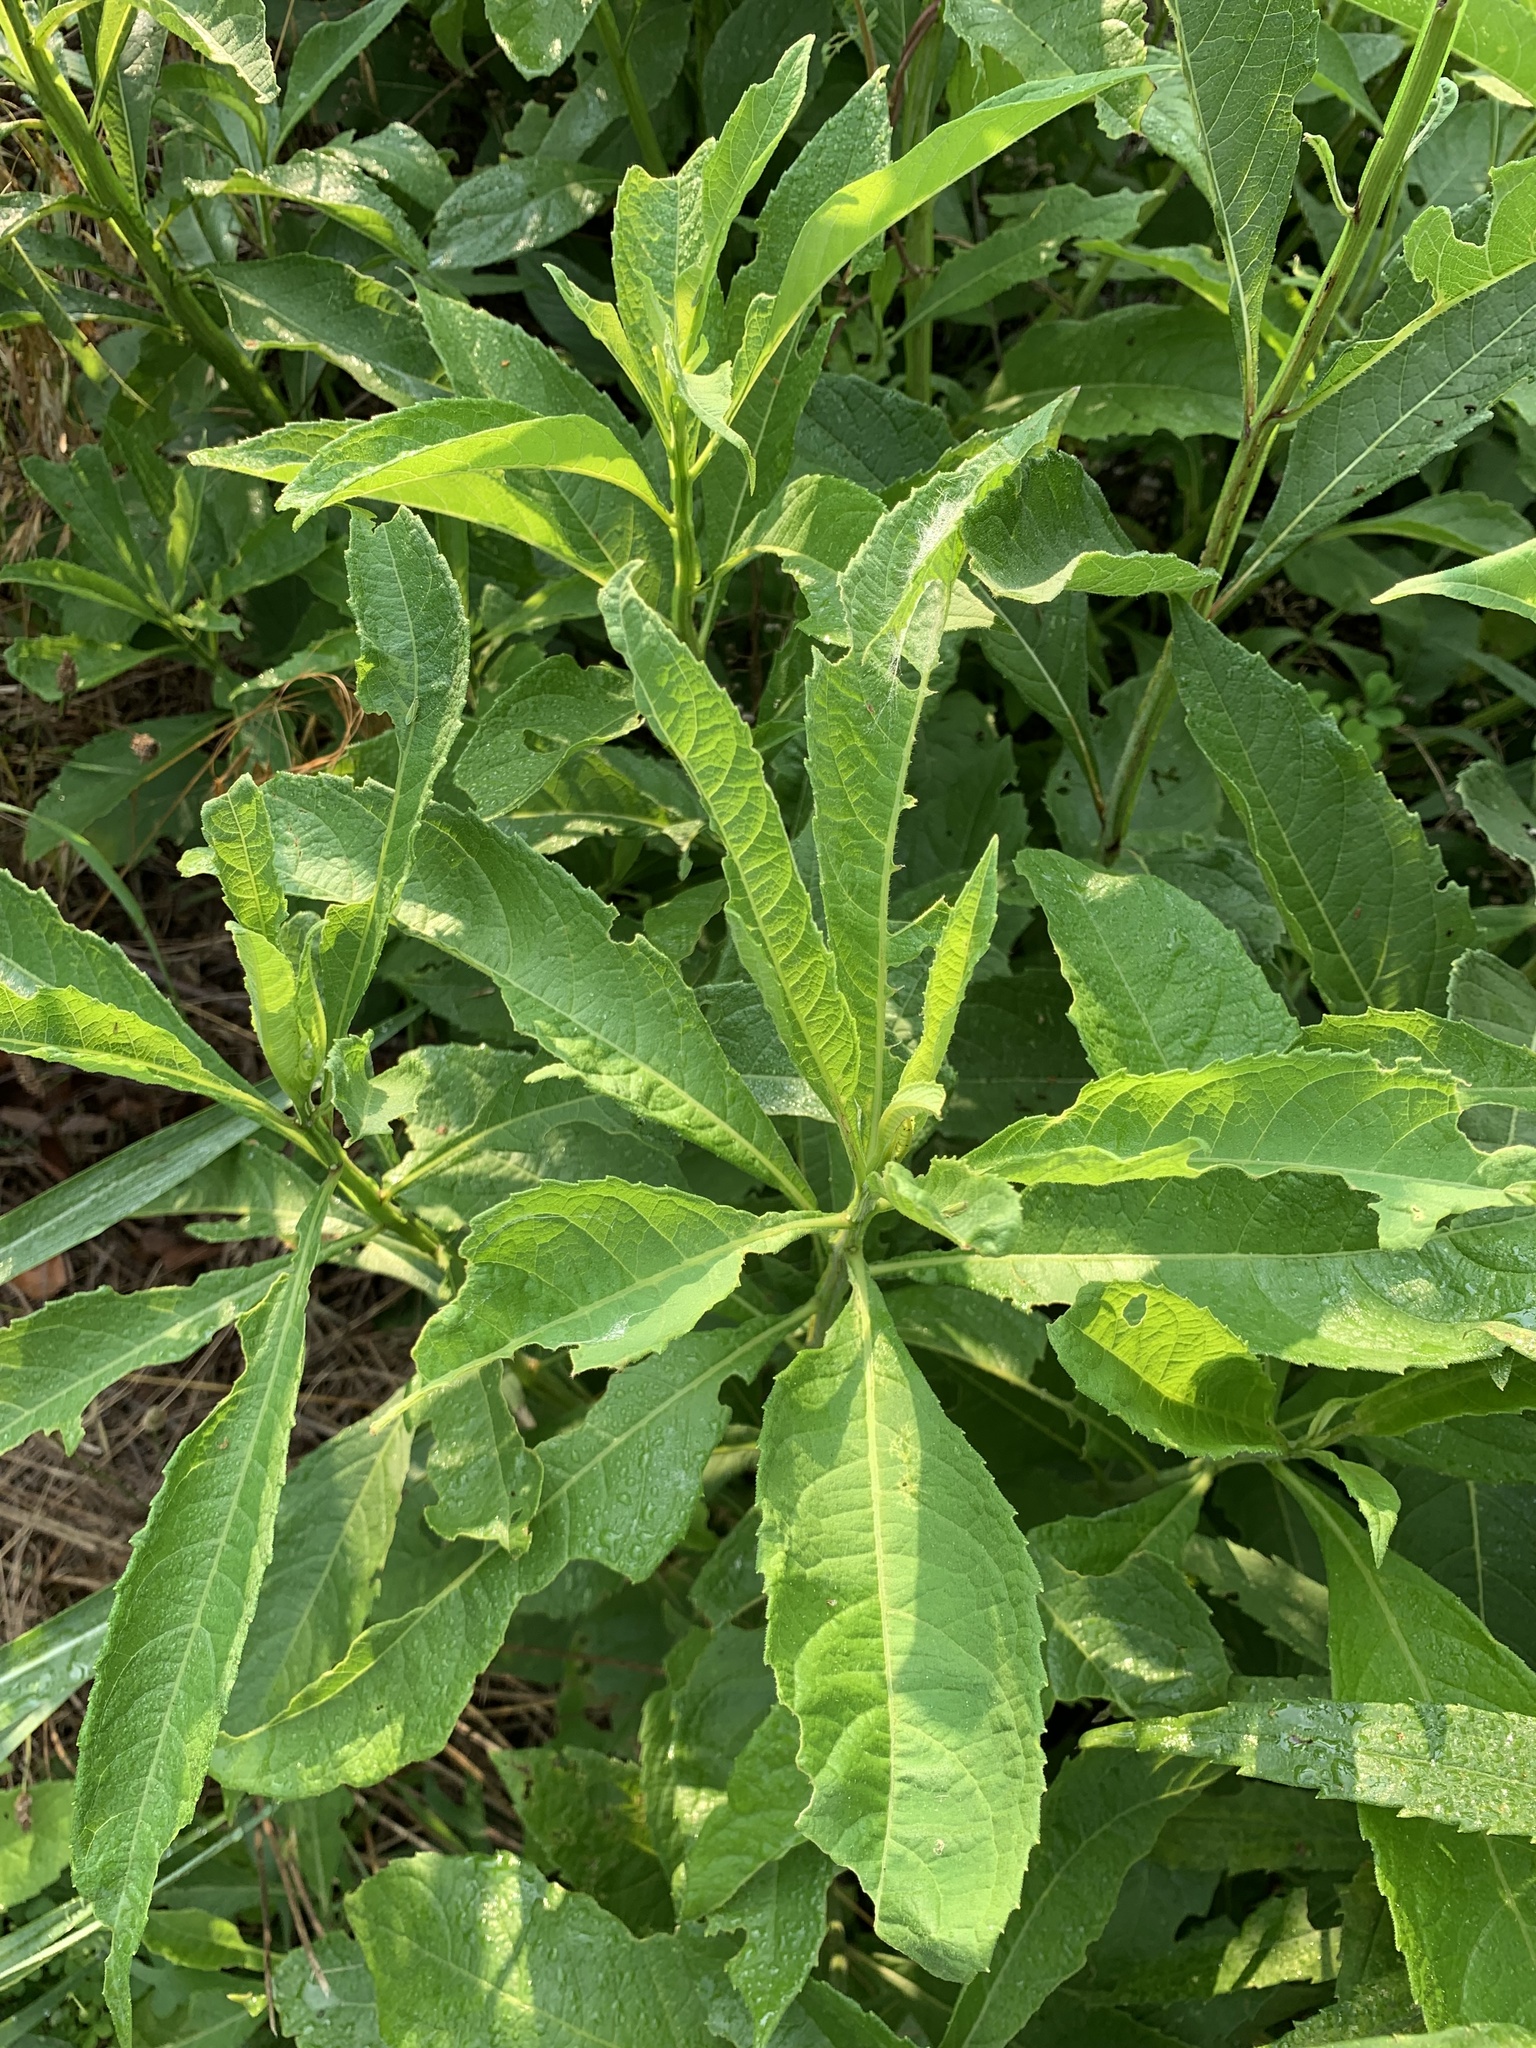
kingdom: Plantae
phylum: Tracheophyta
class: Magnoliopsida
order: Asterales
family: Asteraceae
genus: Verbesina
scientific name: Verbesina alternifolia
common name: Wingstem
